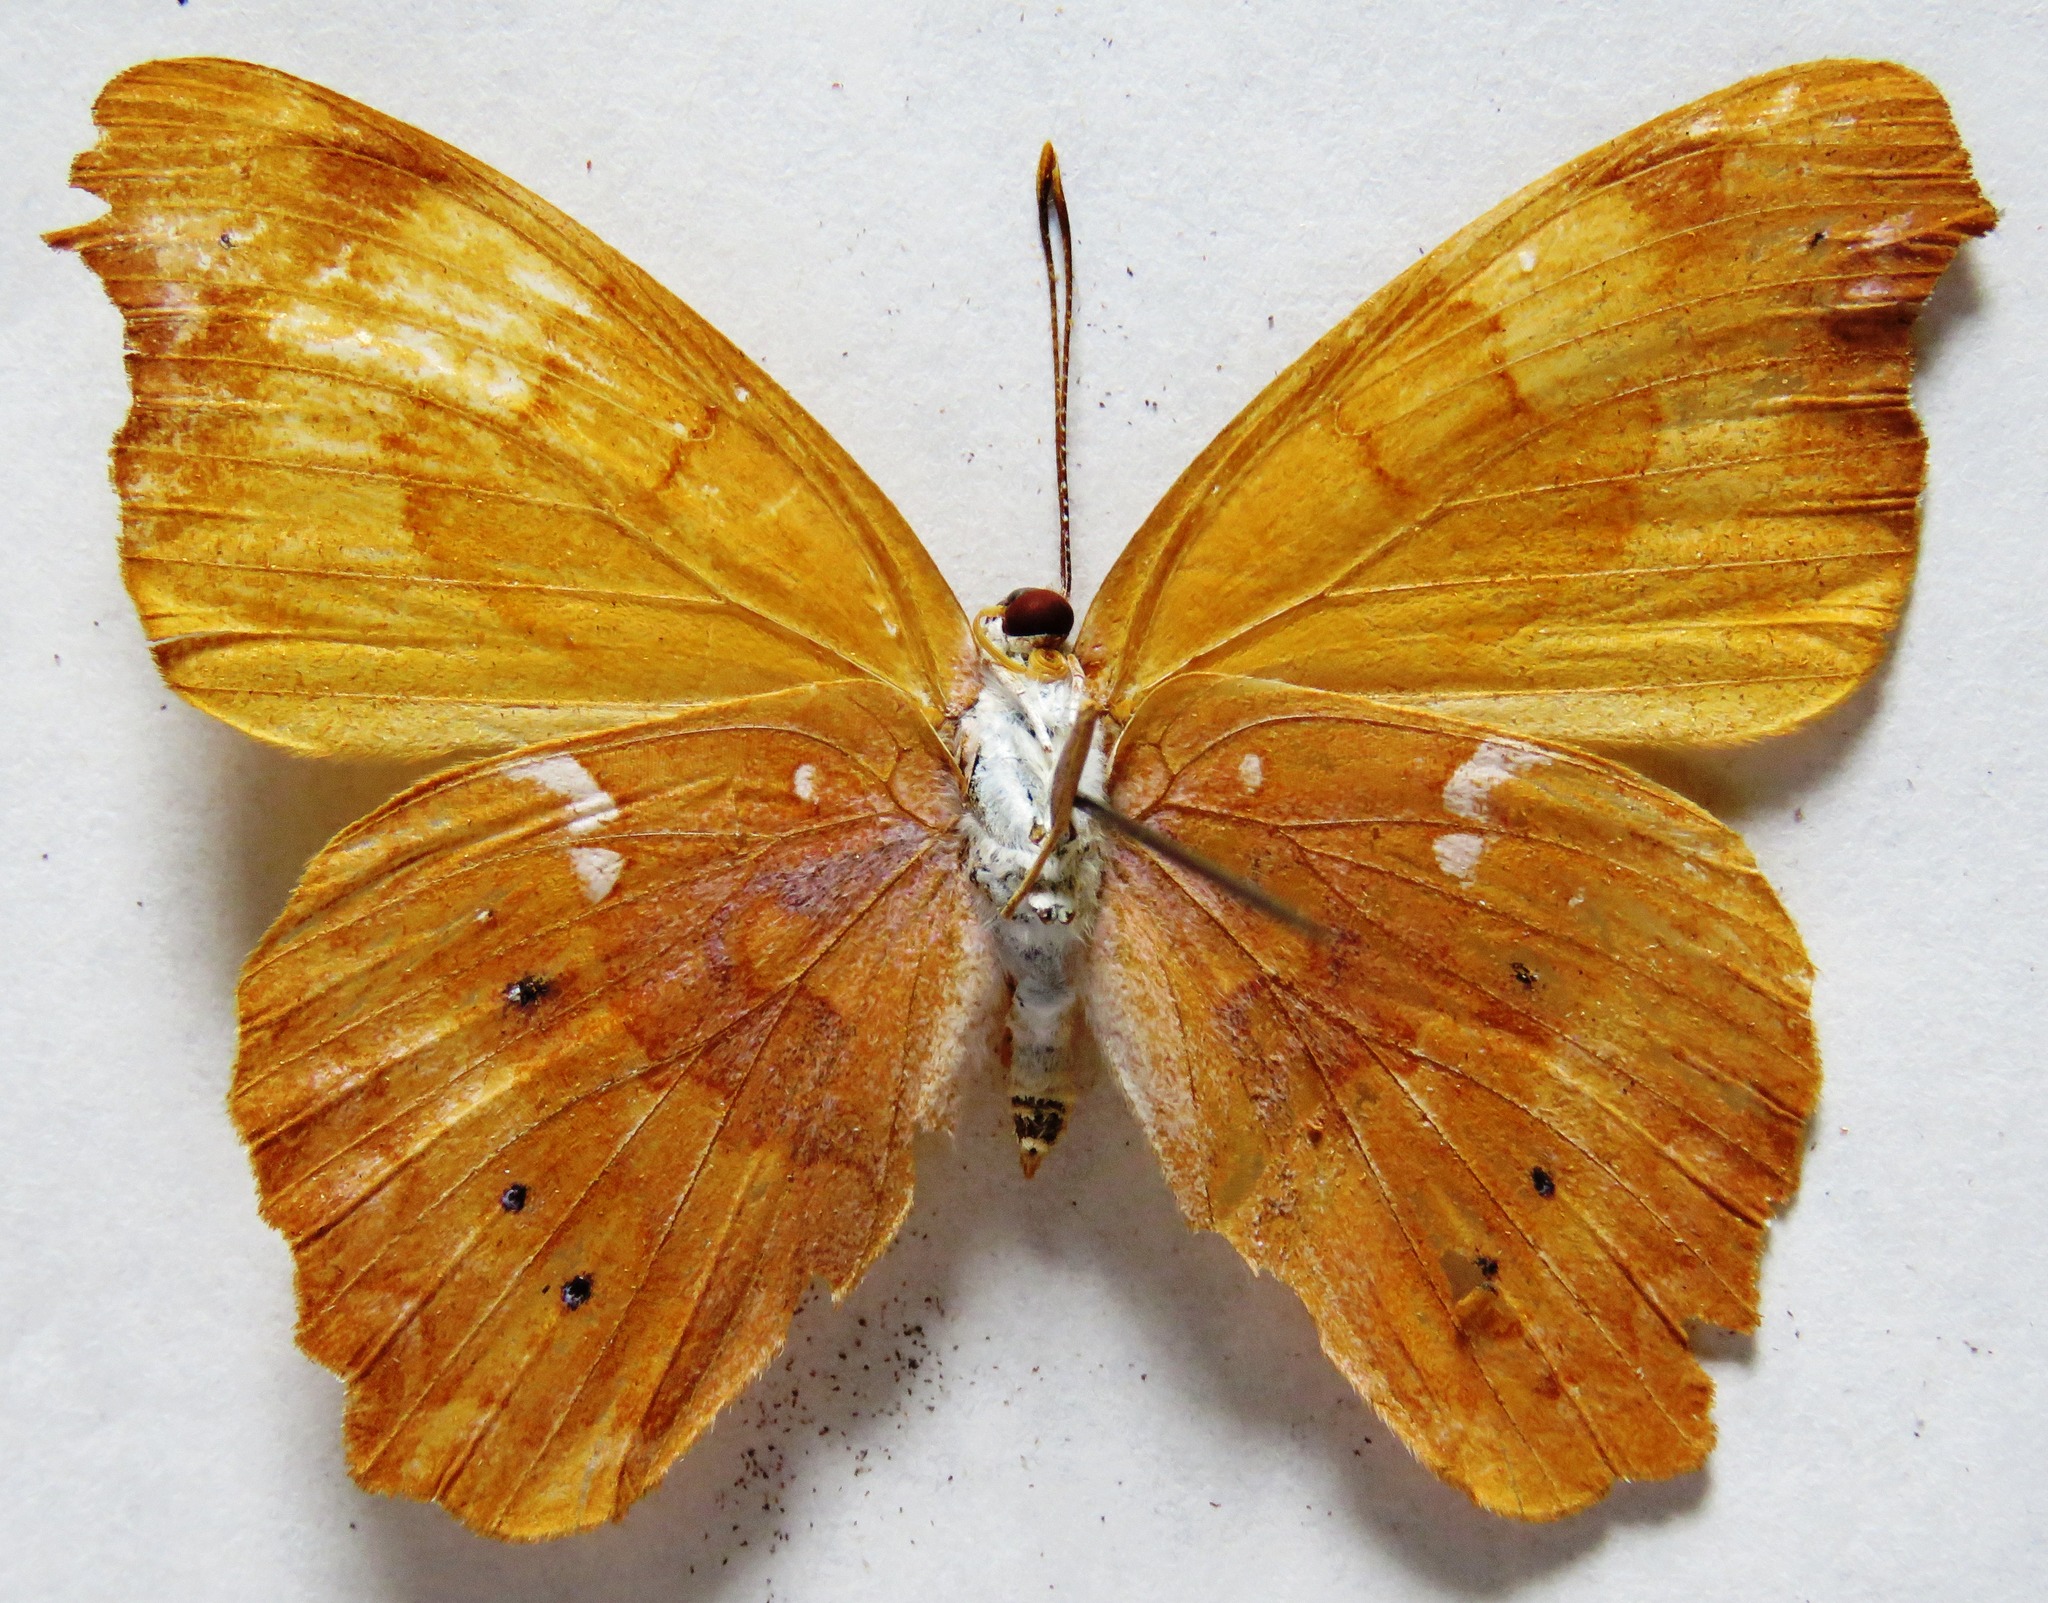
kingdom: Animalia
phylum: Arthropoda
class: Insecta
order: Lepidoptera
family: Nymphalidae
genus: Temenis
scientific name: Temenis laothoe
